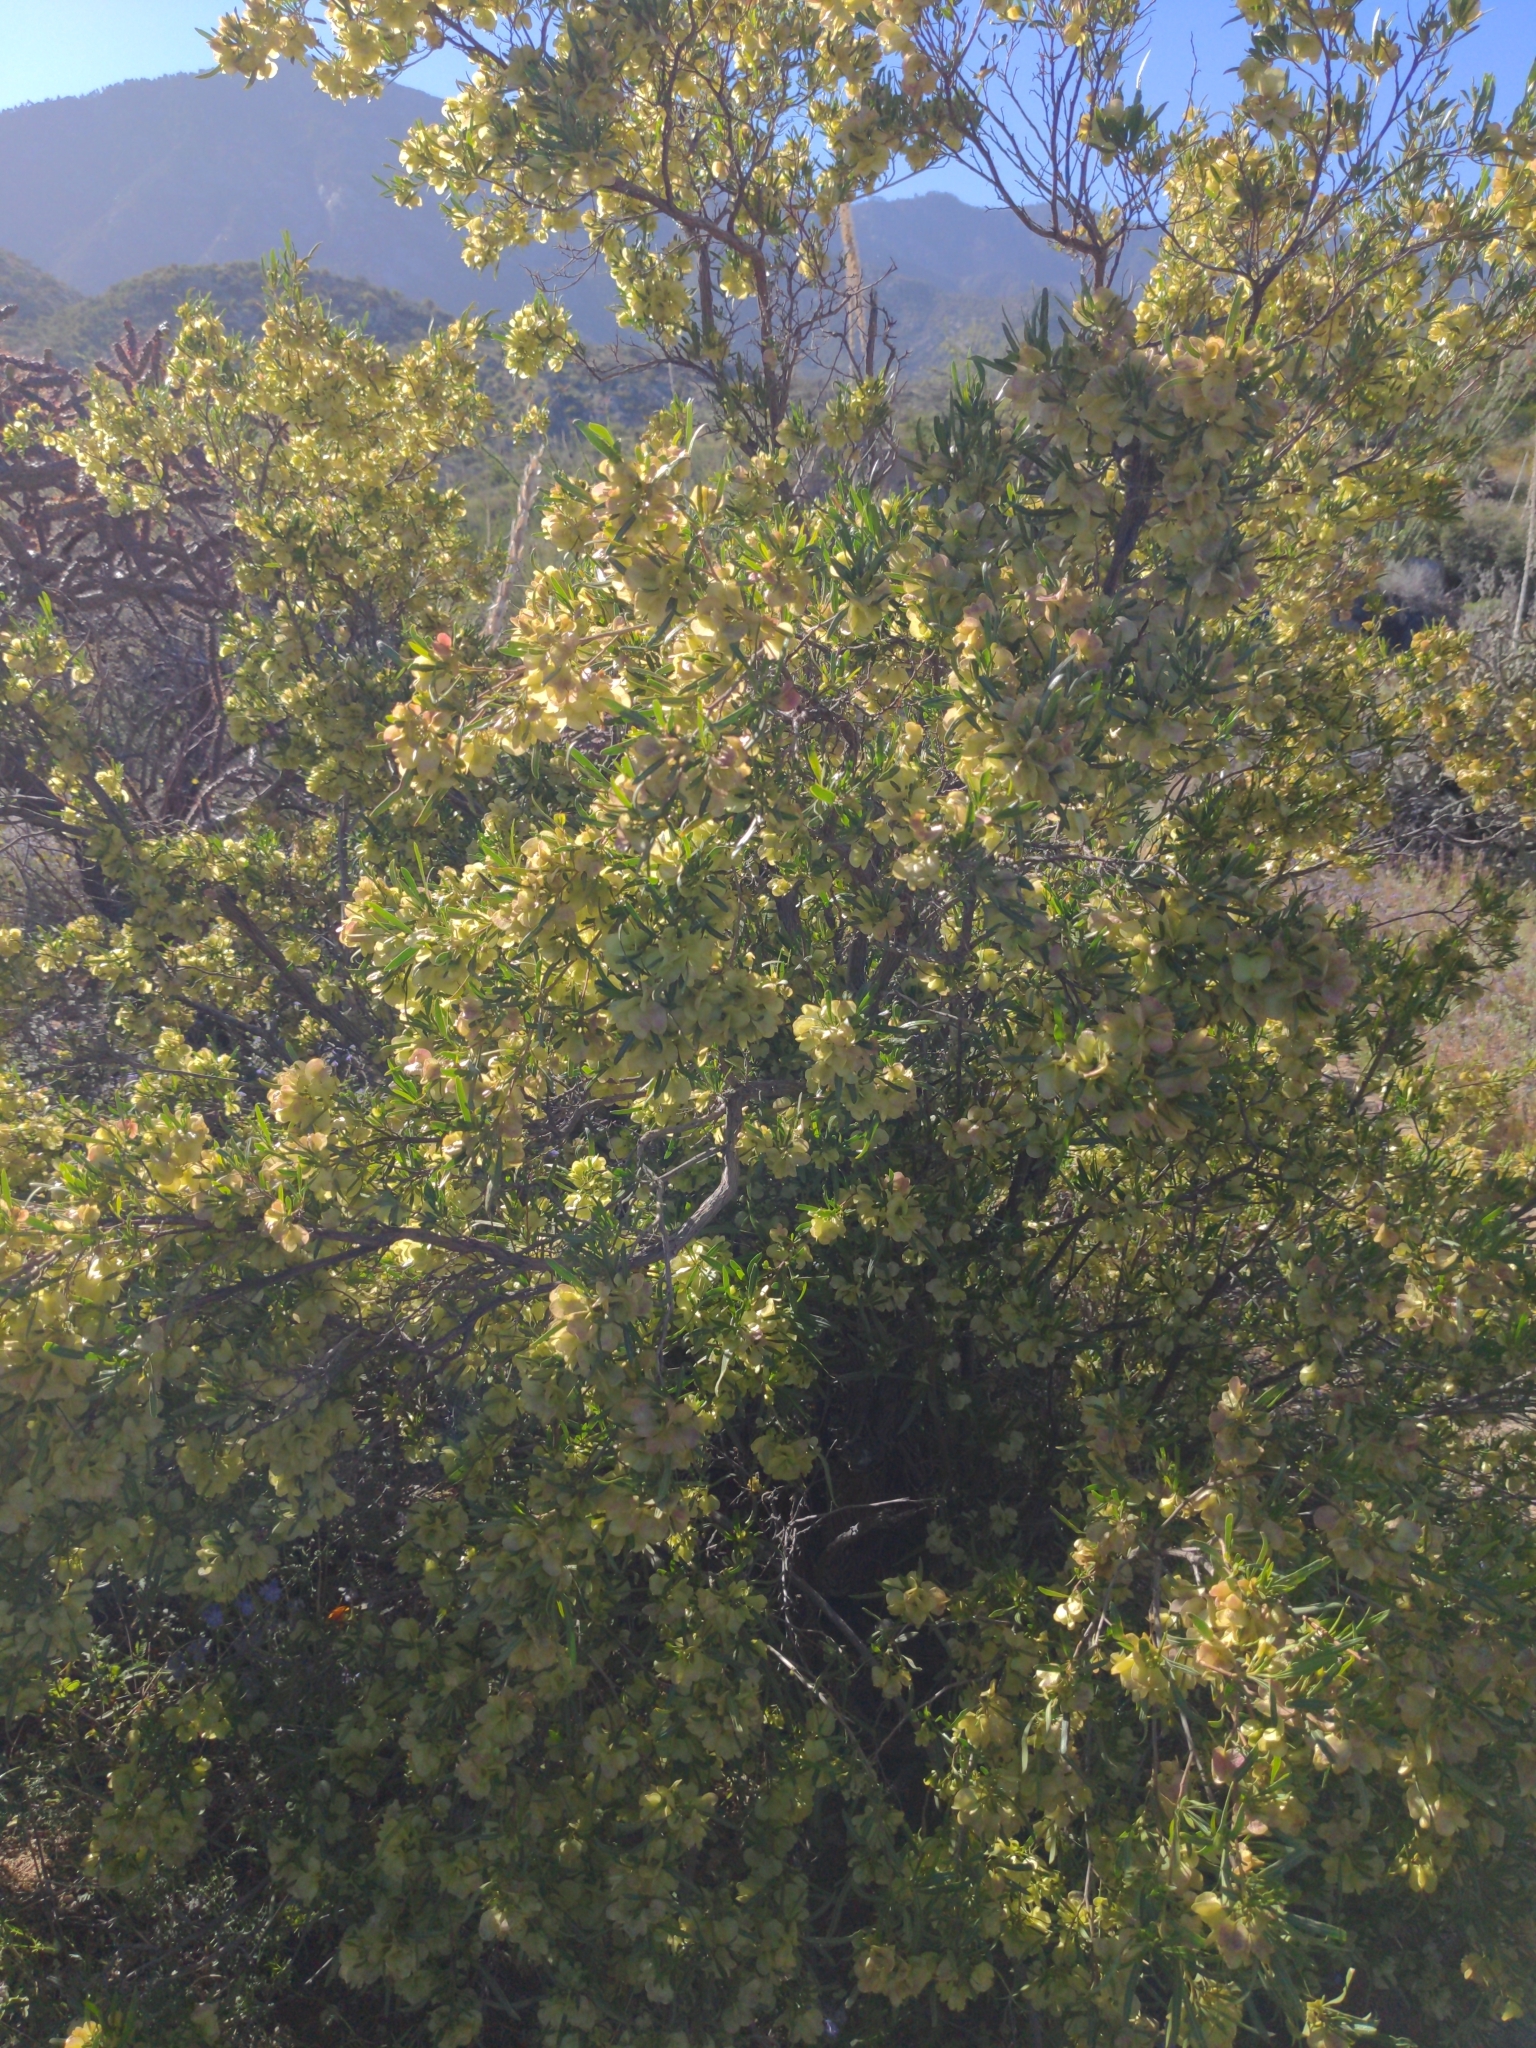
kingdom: Plantae
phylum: Tracheophyta
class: Magnoliopsida
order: Sapindales
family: Sapindaceae
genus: Dodonaea
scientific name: Dodonaea viscosa
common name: Hopbush
